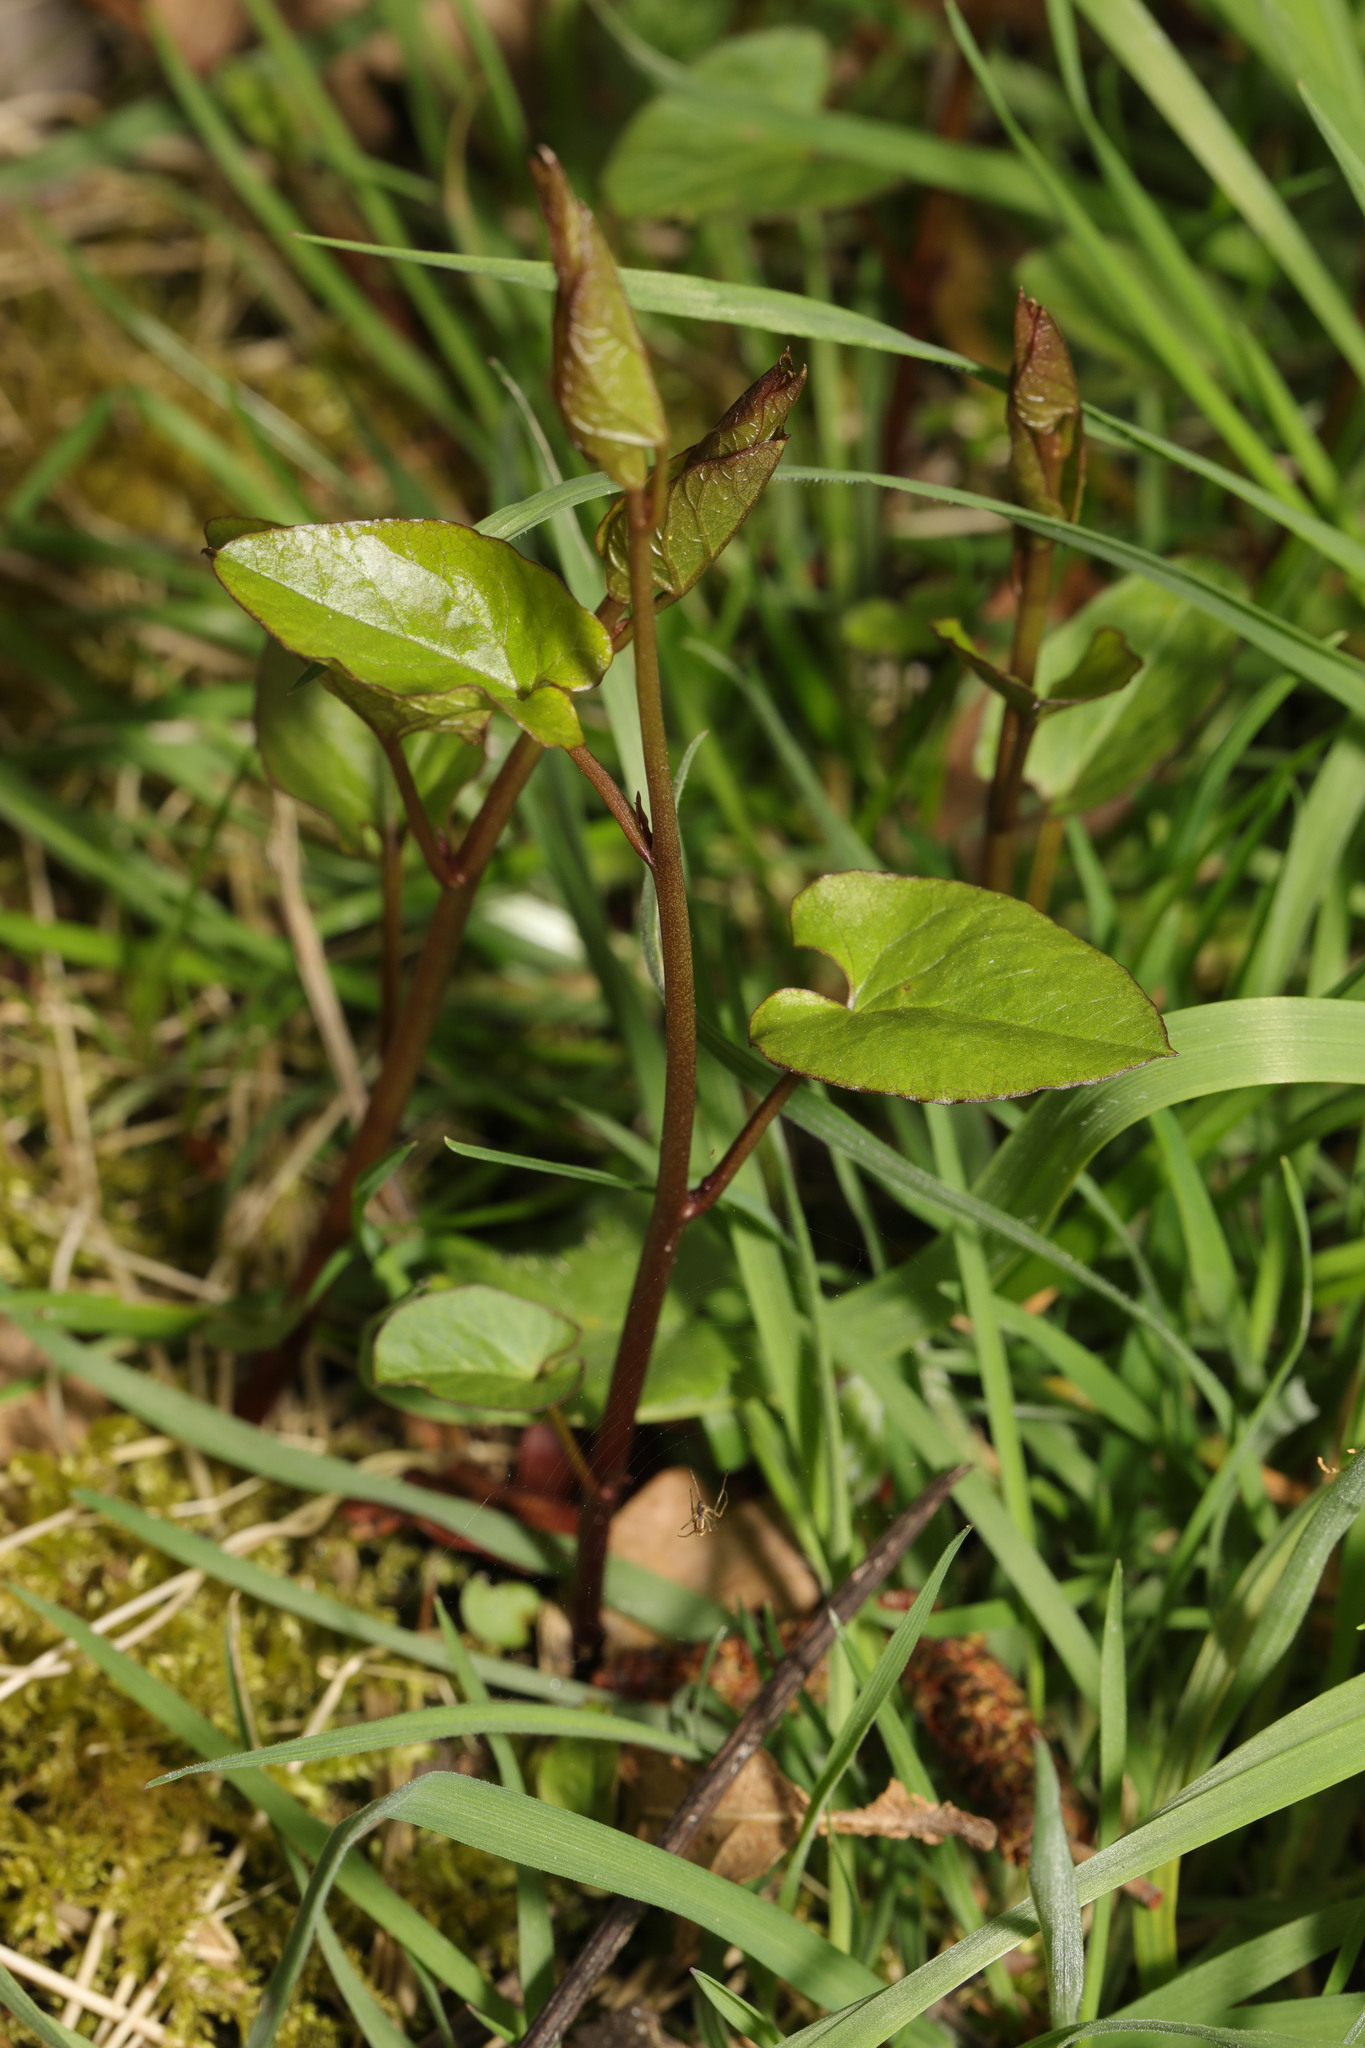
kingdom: Plantae
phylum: Tracheophyta
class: Magnoliopsida
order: Caryophyllales
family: Polygonaceae
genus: Fallopia
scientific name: Fallopia convolvulus
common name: Black bindweed
